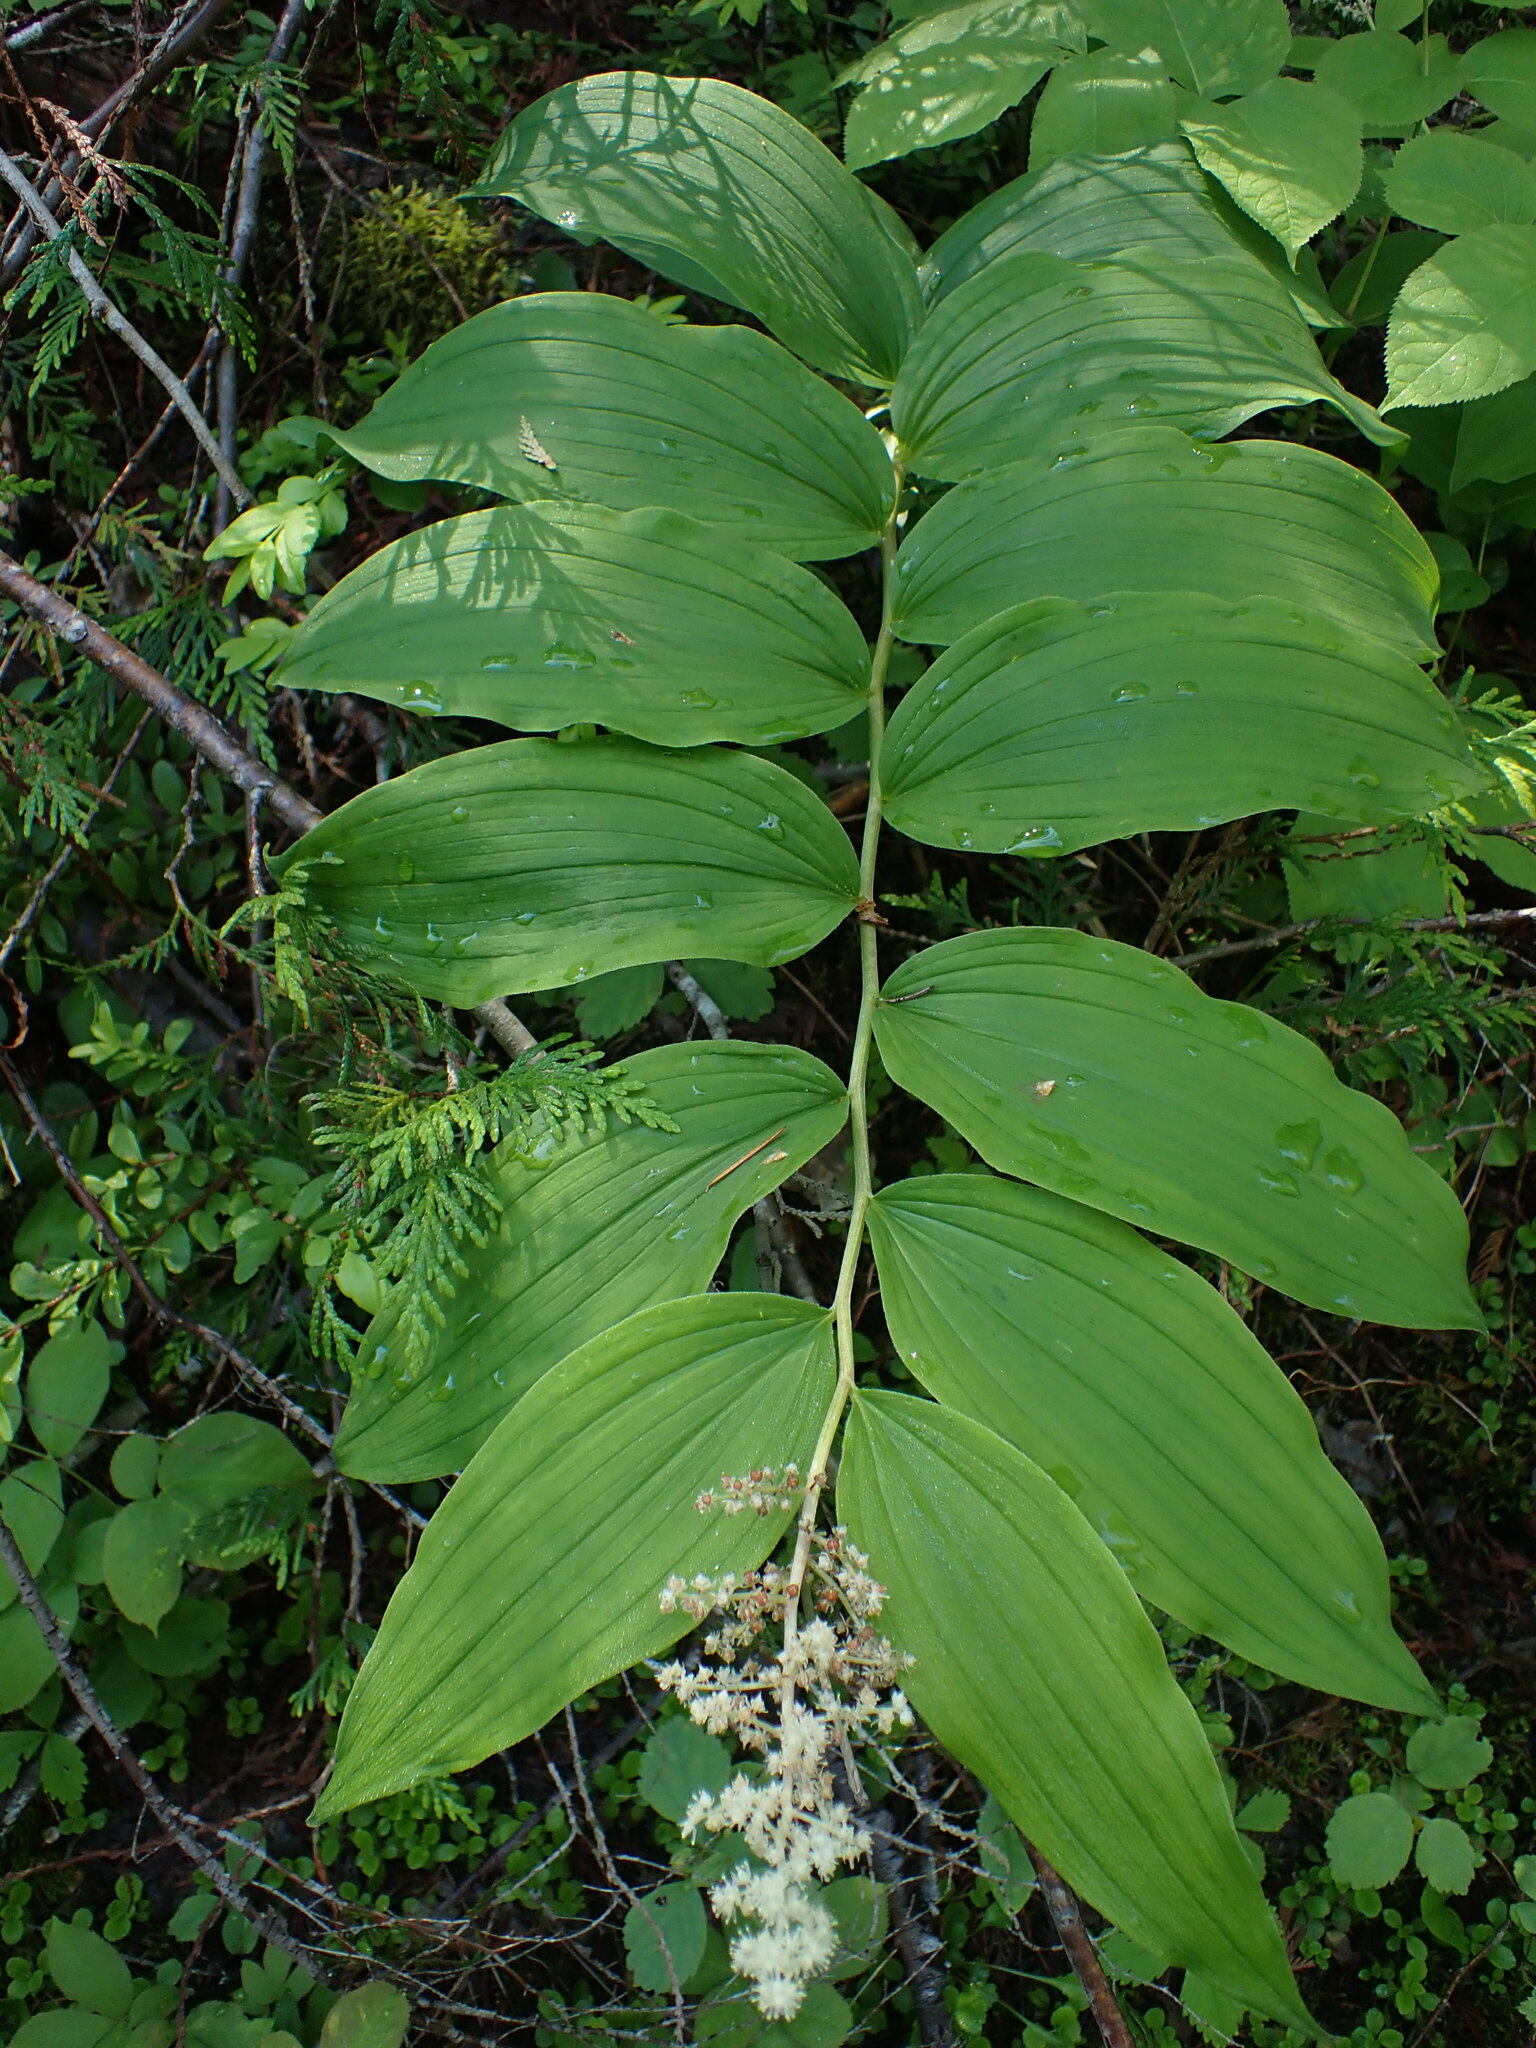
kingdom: Plantae
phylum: Tracheophyta
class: Liliopsida
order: Asparagales
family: Asparagaceae
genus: Maianthemum
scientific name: Maianthemum racemosum
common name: False spikenard
